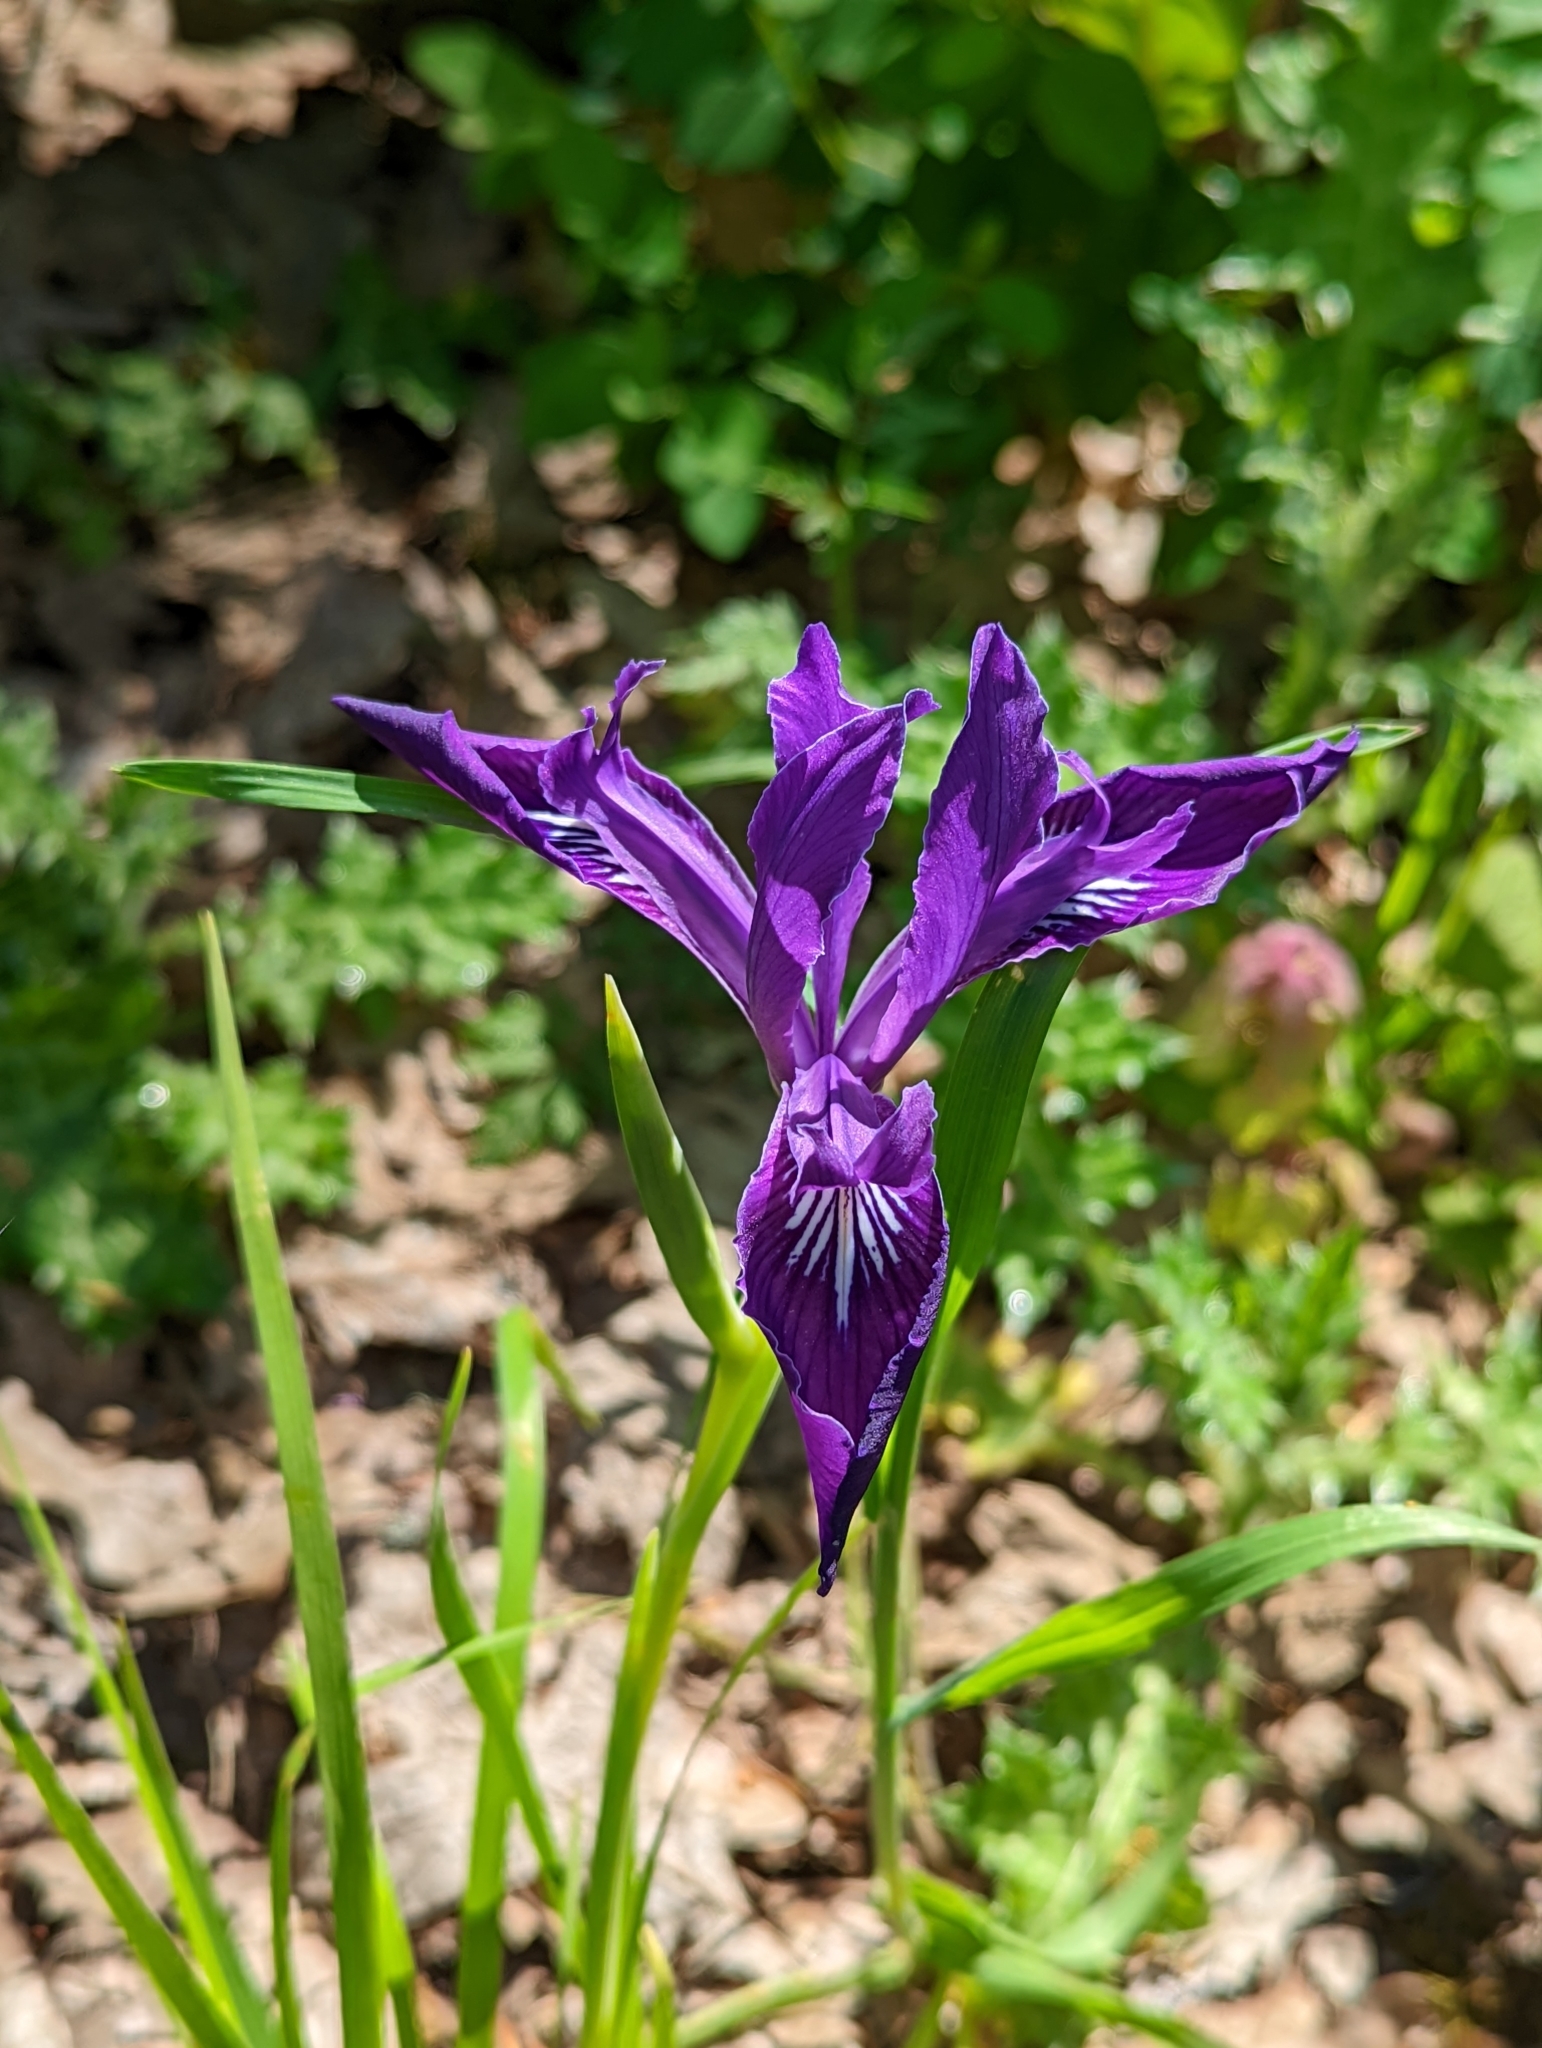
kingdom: Plantae
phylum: Tracheophyta
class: Liliopsida
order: Asparagales
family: Iridaceae
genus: Iris
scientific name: Iris tenax
